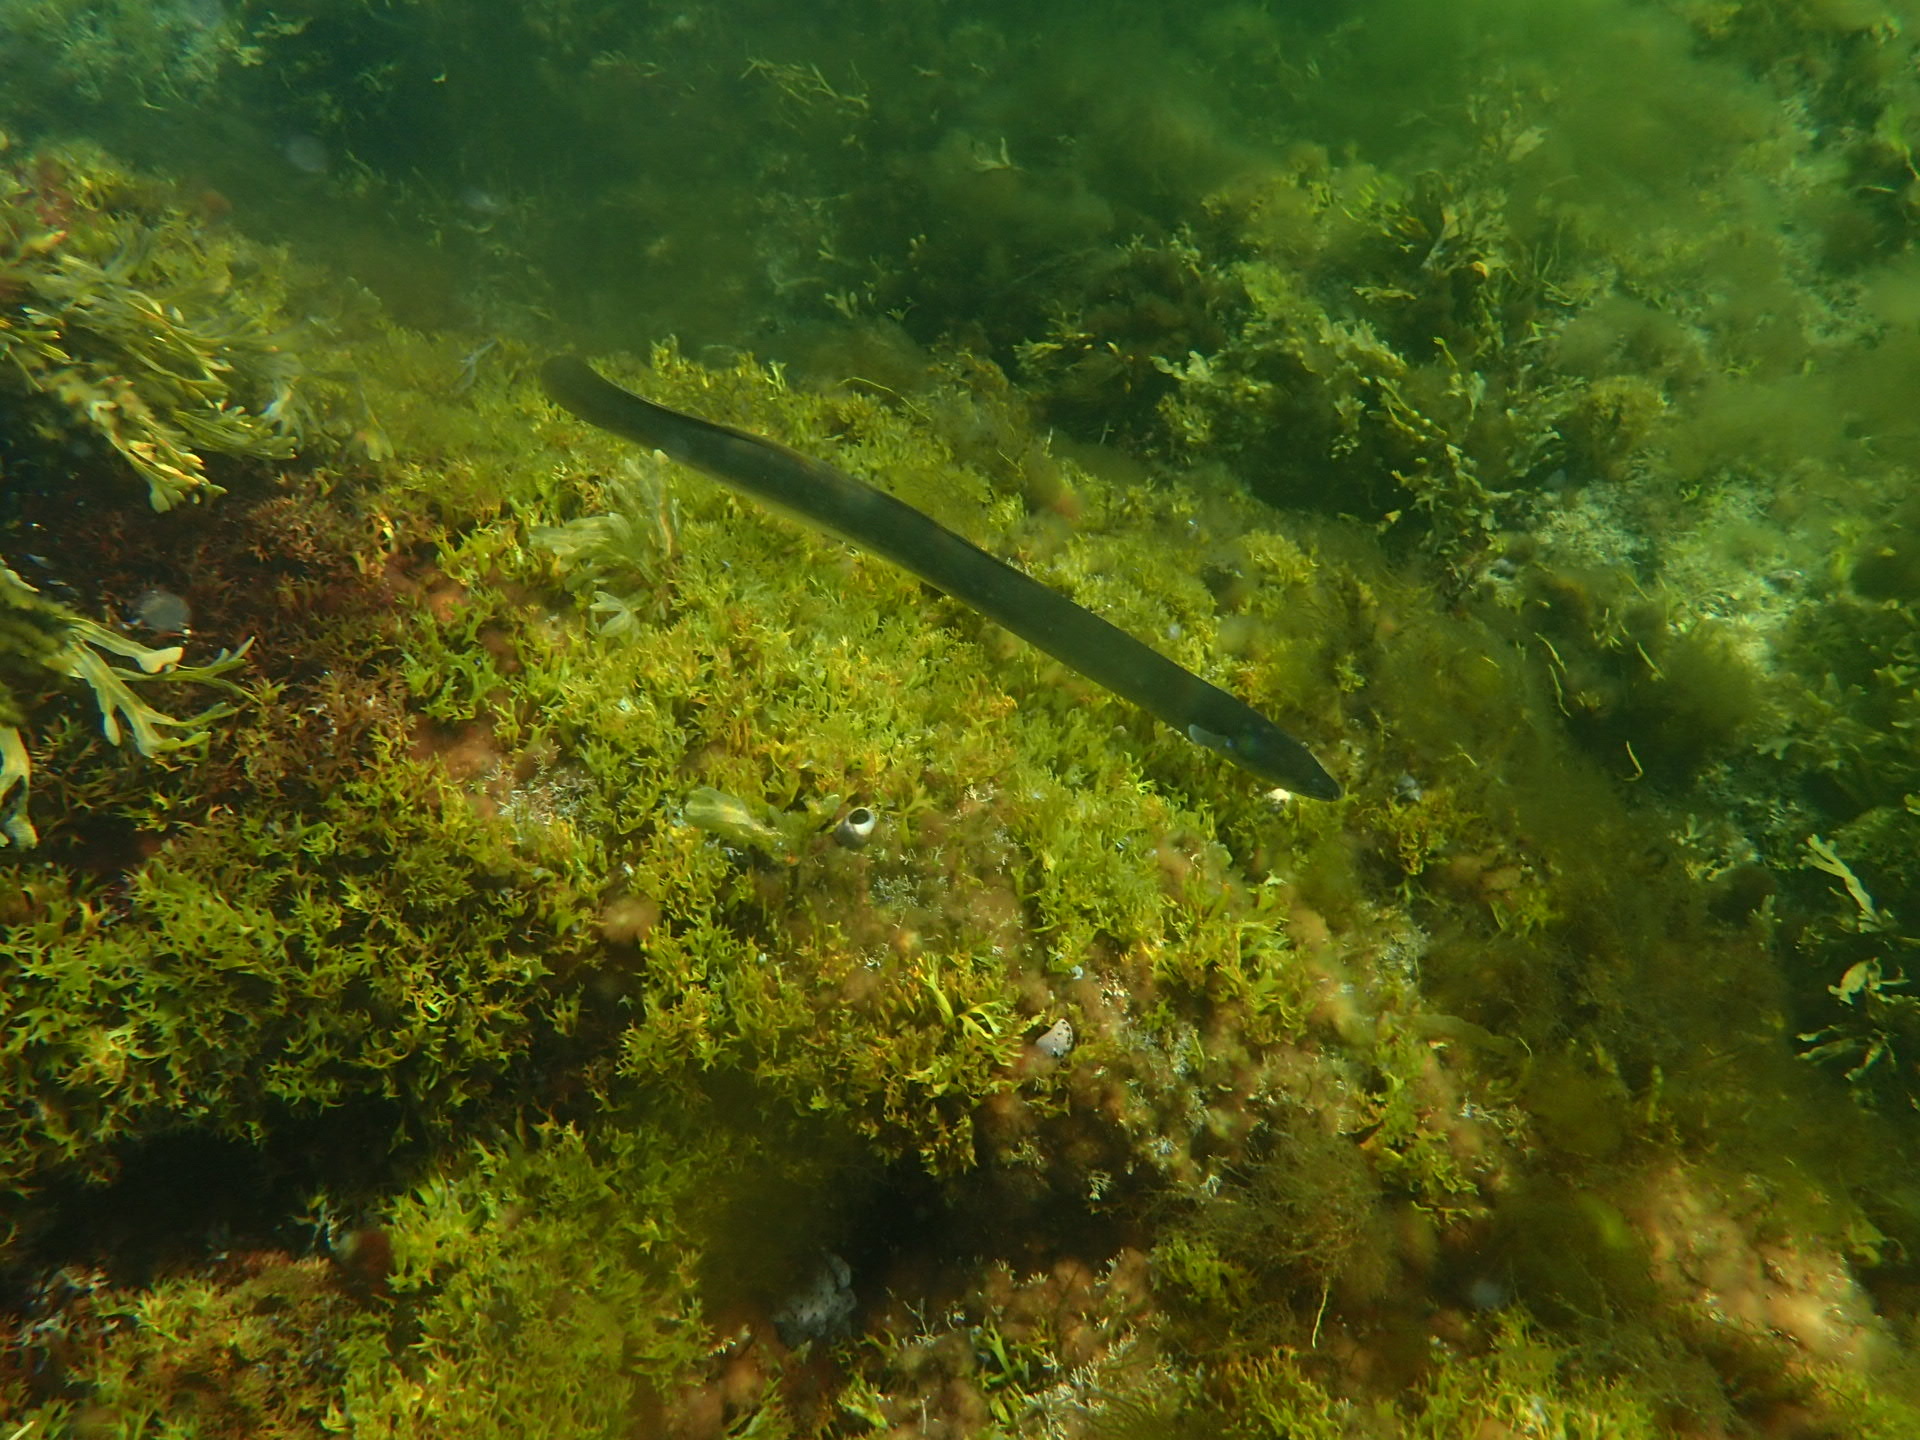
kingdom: Animalia
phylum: Chordata
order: Anguilliformes
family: Anguillidae
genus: Anguilla
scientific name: Anguilla rostrata
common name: American eel
